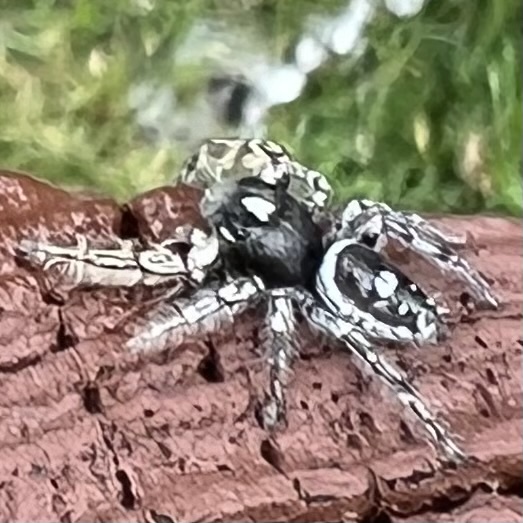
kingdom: Animalia
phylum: Arthropoda
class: Arachnida
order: Araneae
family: Salticidae
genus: Phidippus
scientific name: Phidippus putnami
